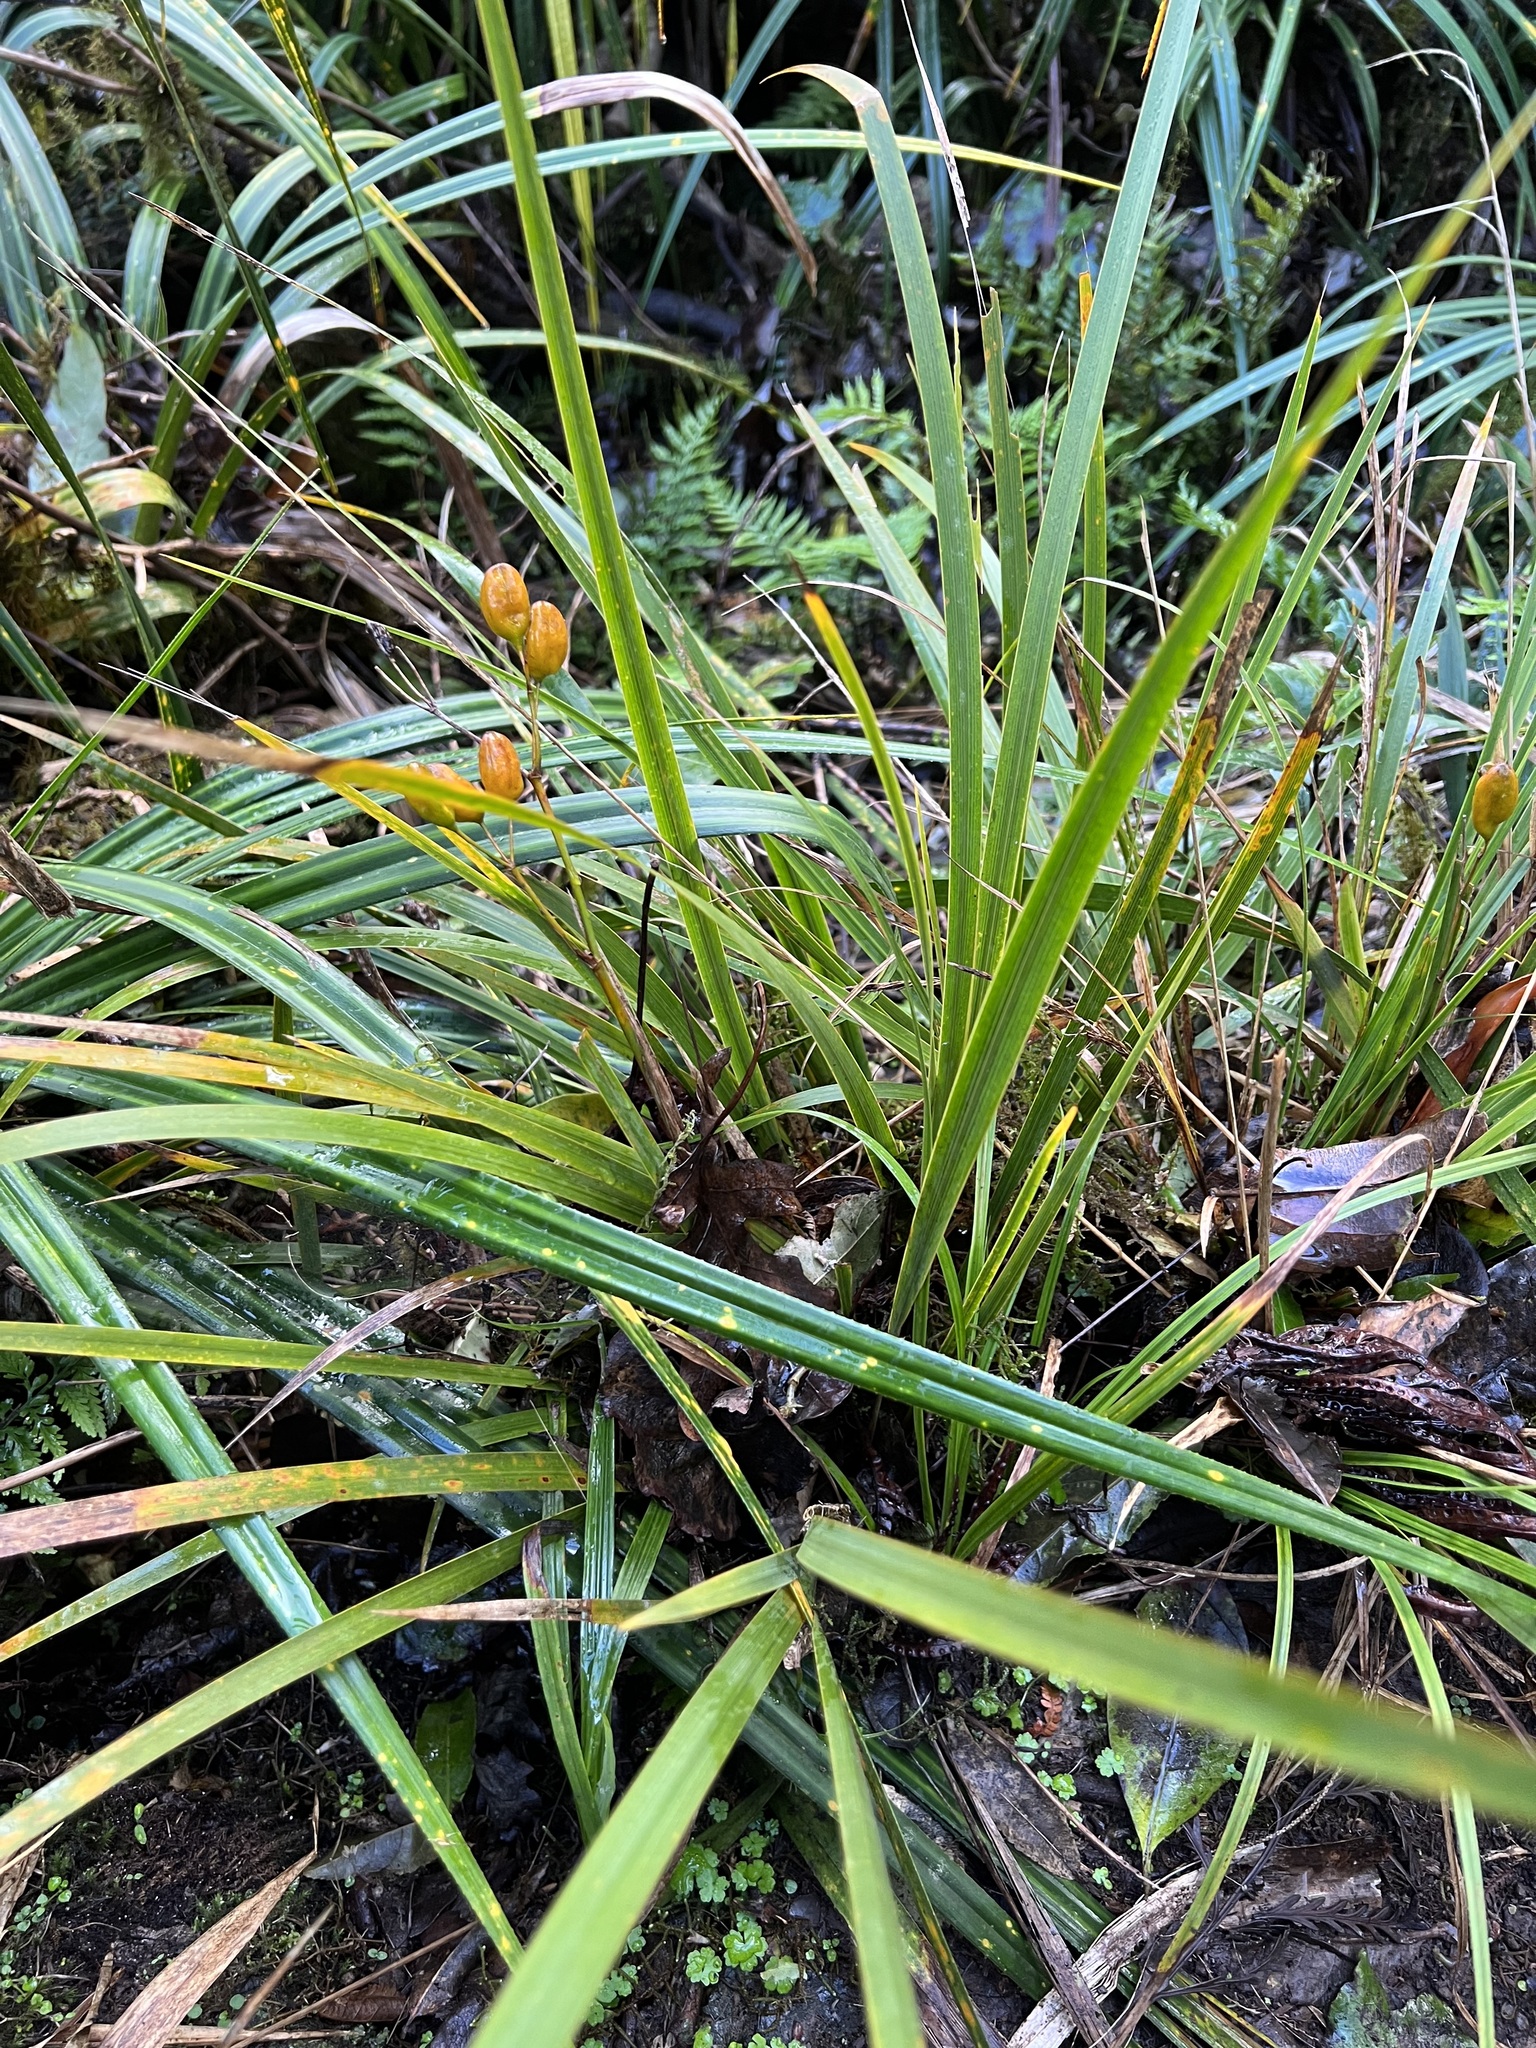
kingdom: Plantae
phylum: Tracheophyta
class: Liliopsida
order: Asparagales
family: Iridaceae
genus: Libertia
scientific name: Libertia ixioides
